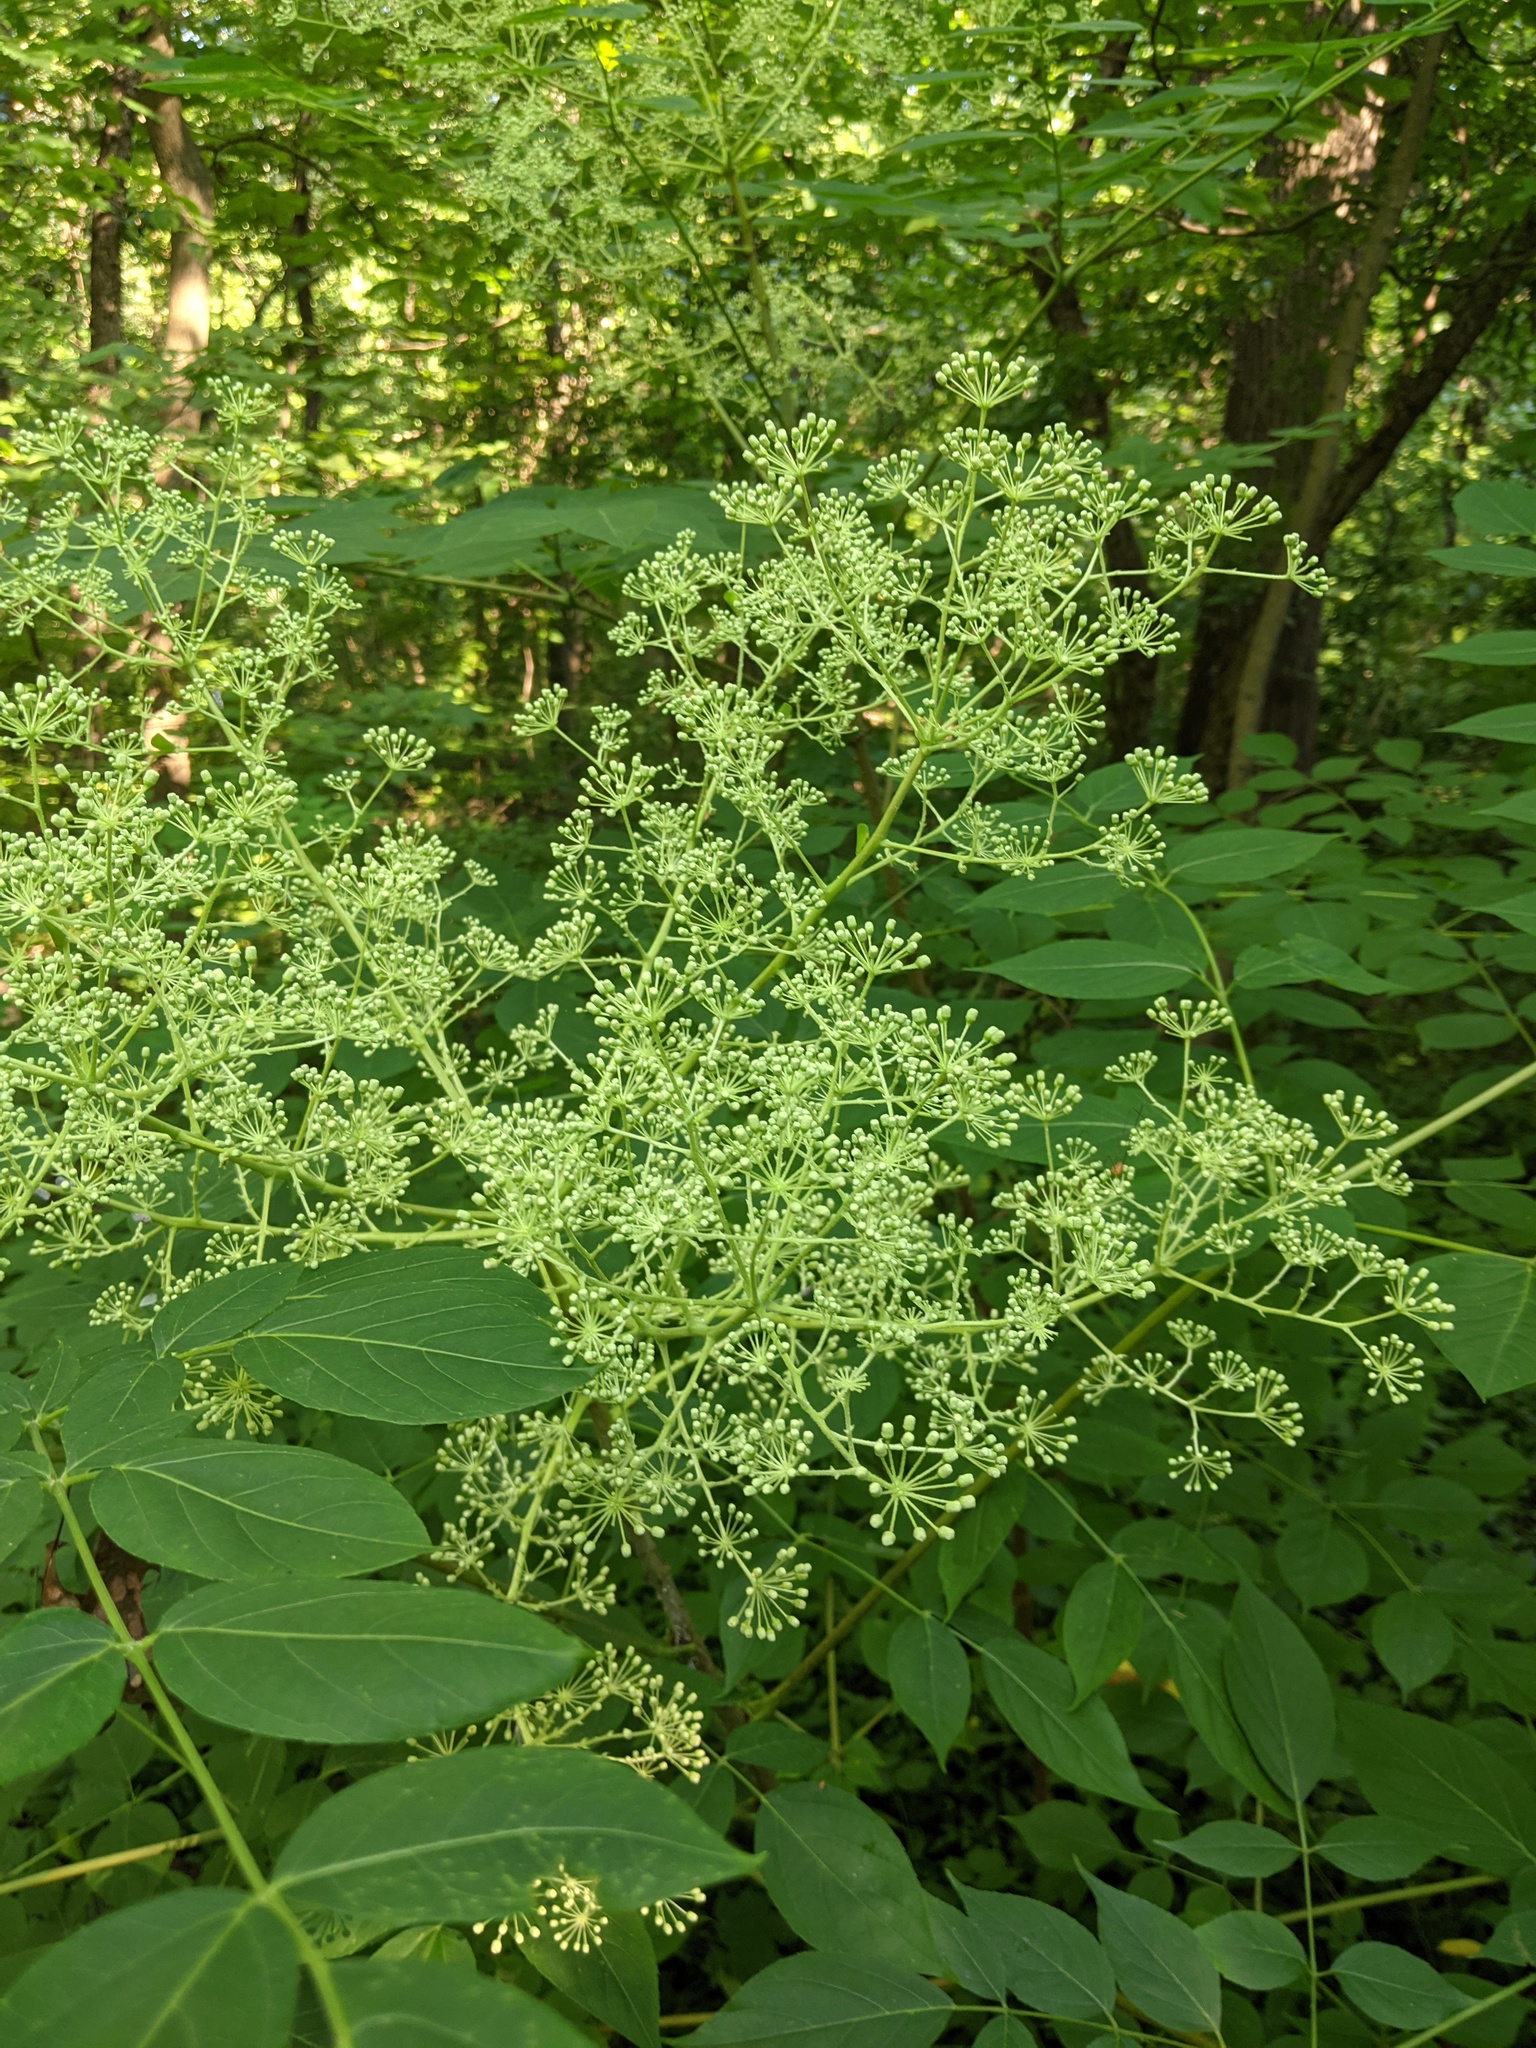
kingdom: Plantae
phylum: Tracheophyta
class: Magnoliopsida
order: Apiales
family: Araliaceae
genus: Aralia
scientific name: Aralia spinosa
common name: Hercules'-club
